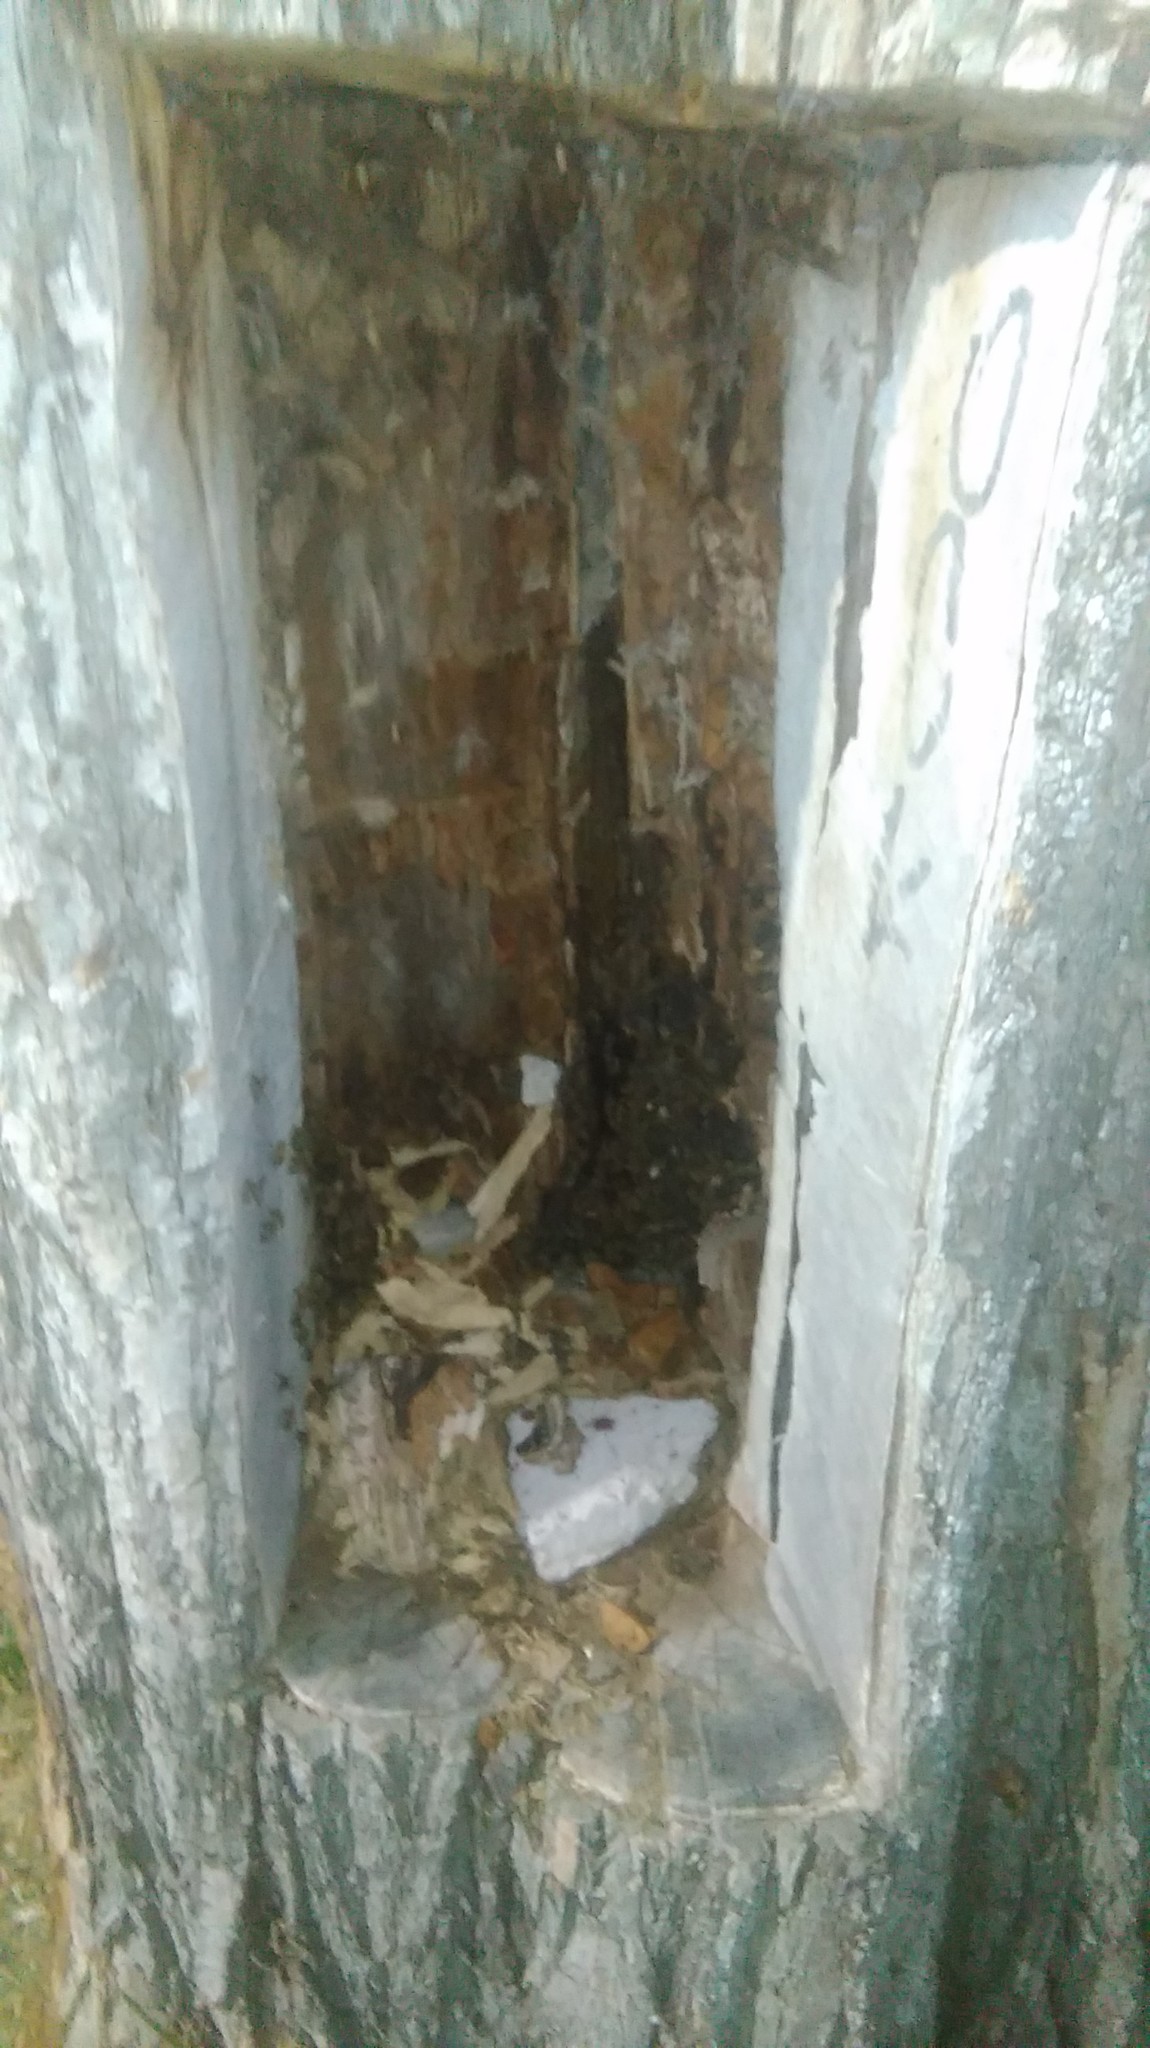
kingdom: Animalia
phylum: Arthropoda
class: Insecta
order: Hymenoptera
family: Apidae
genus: Apis
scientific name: Apis mellifera
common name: Honey bee
